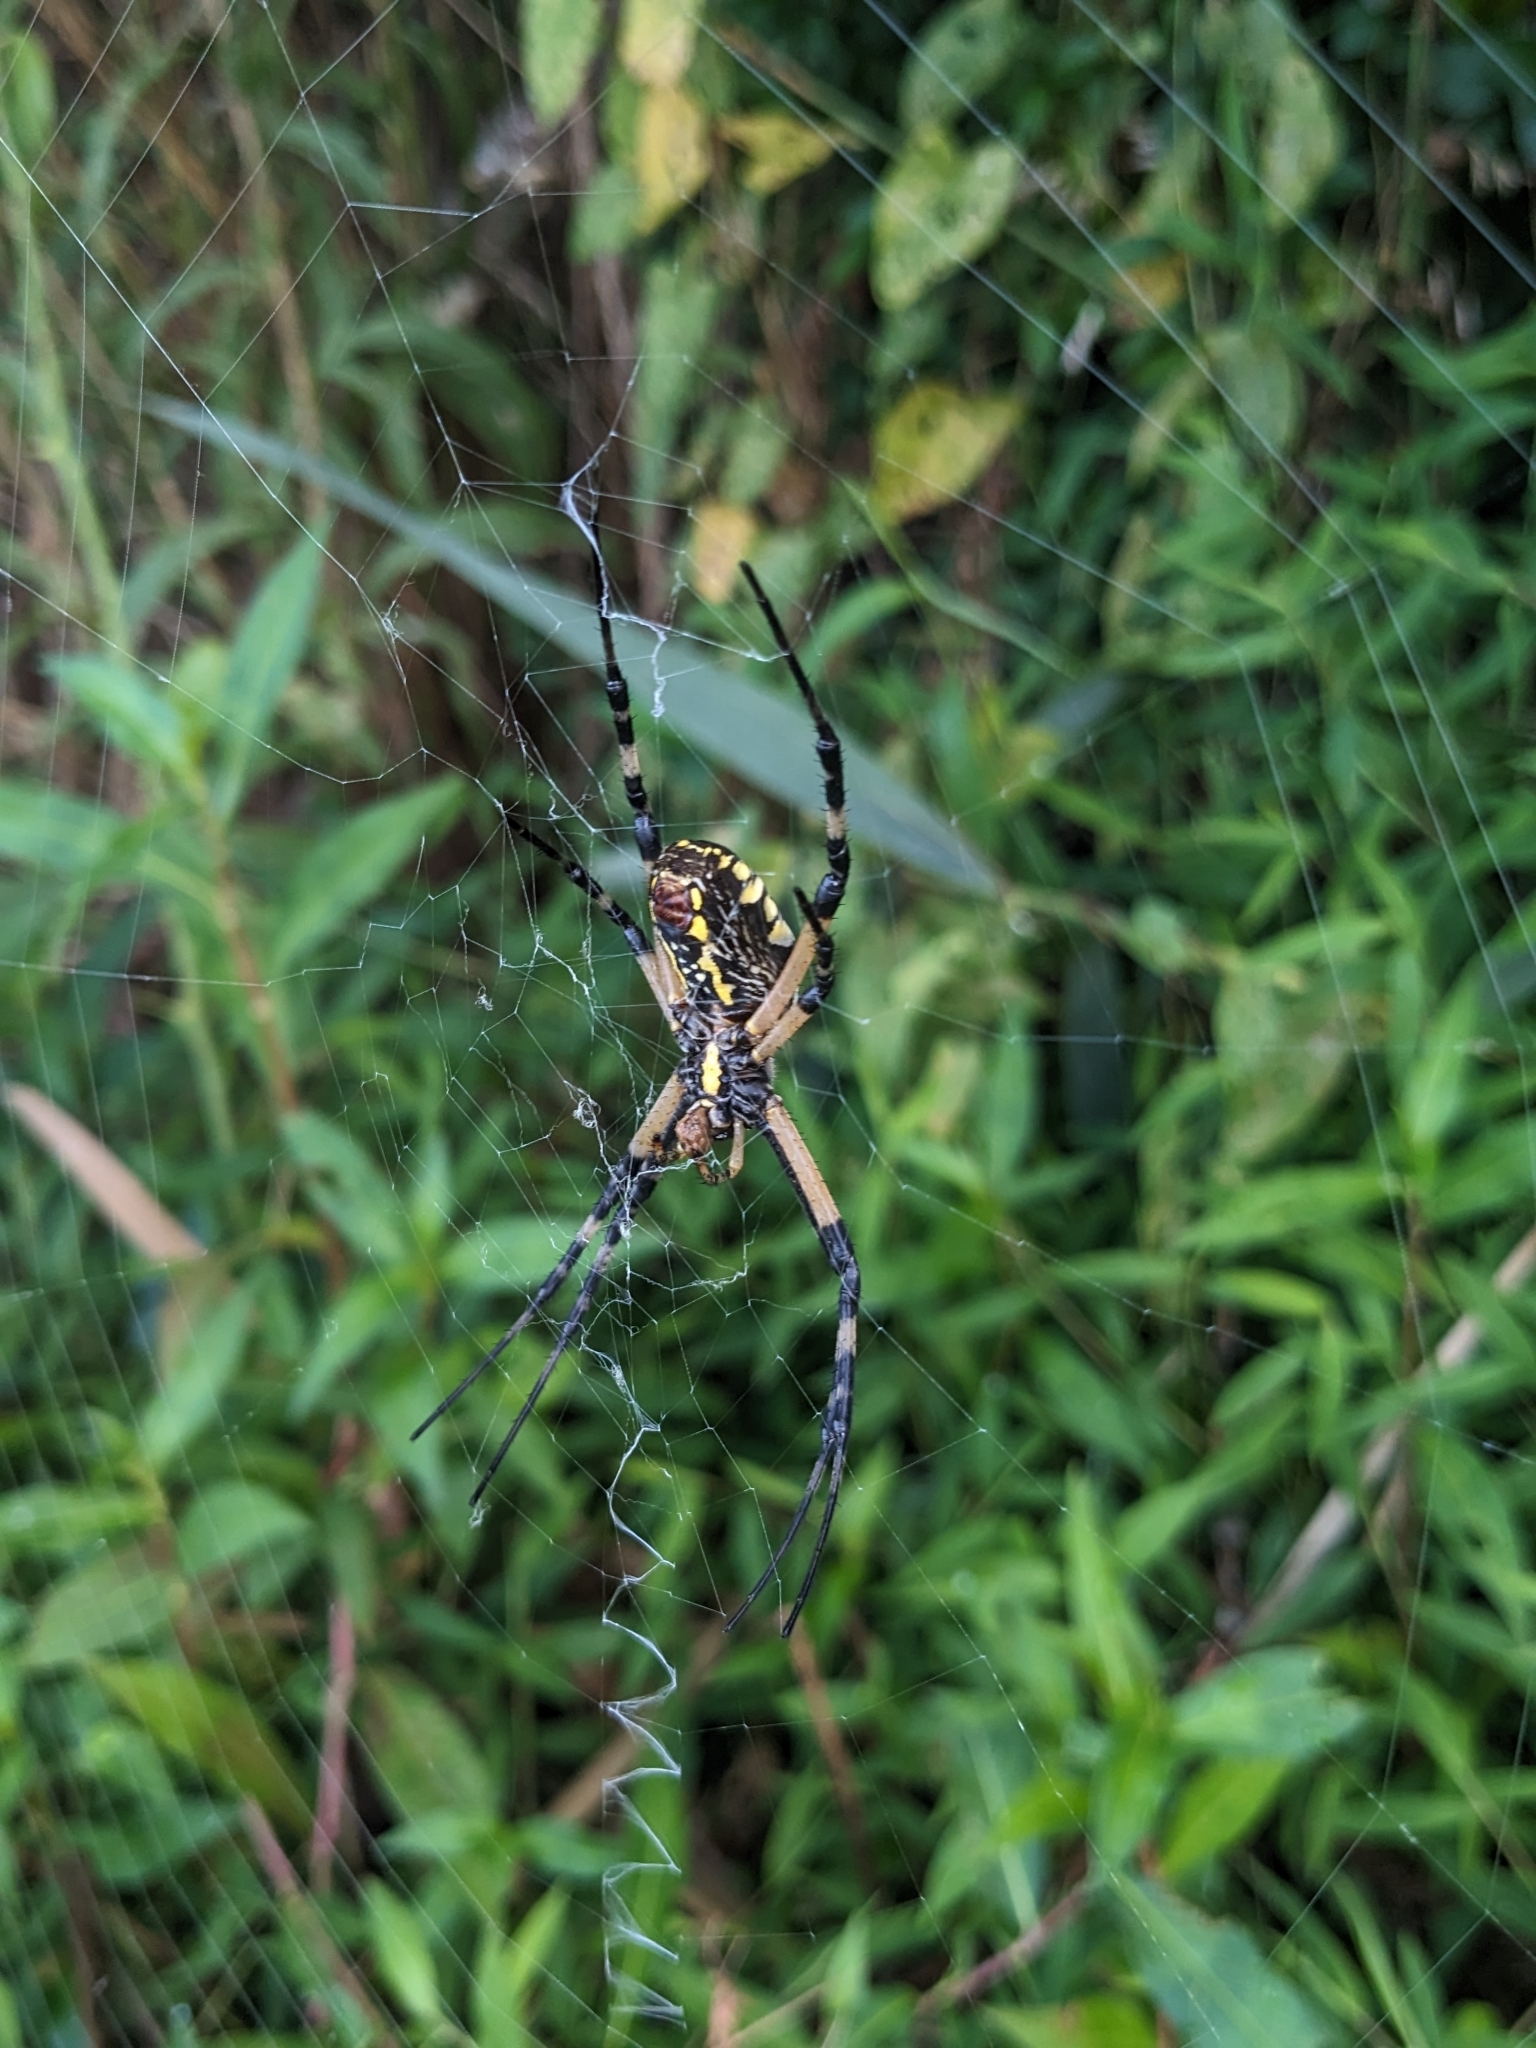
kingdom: Animalia
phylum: Arthropoda
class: Arachnida
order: Araneae
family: Araneidae
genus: Argiope
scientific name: Argiope aurantia
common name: Orb weavers
